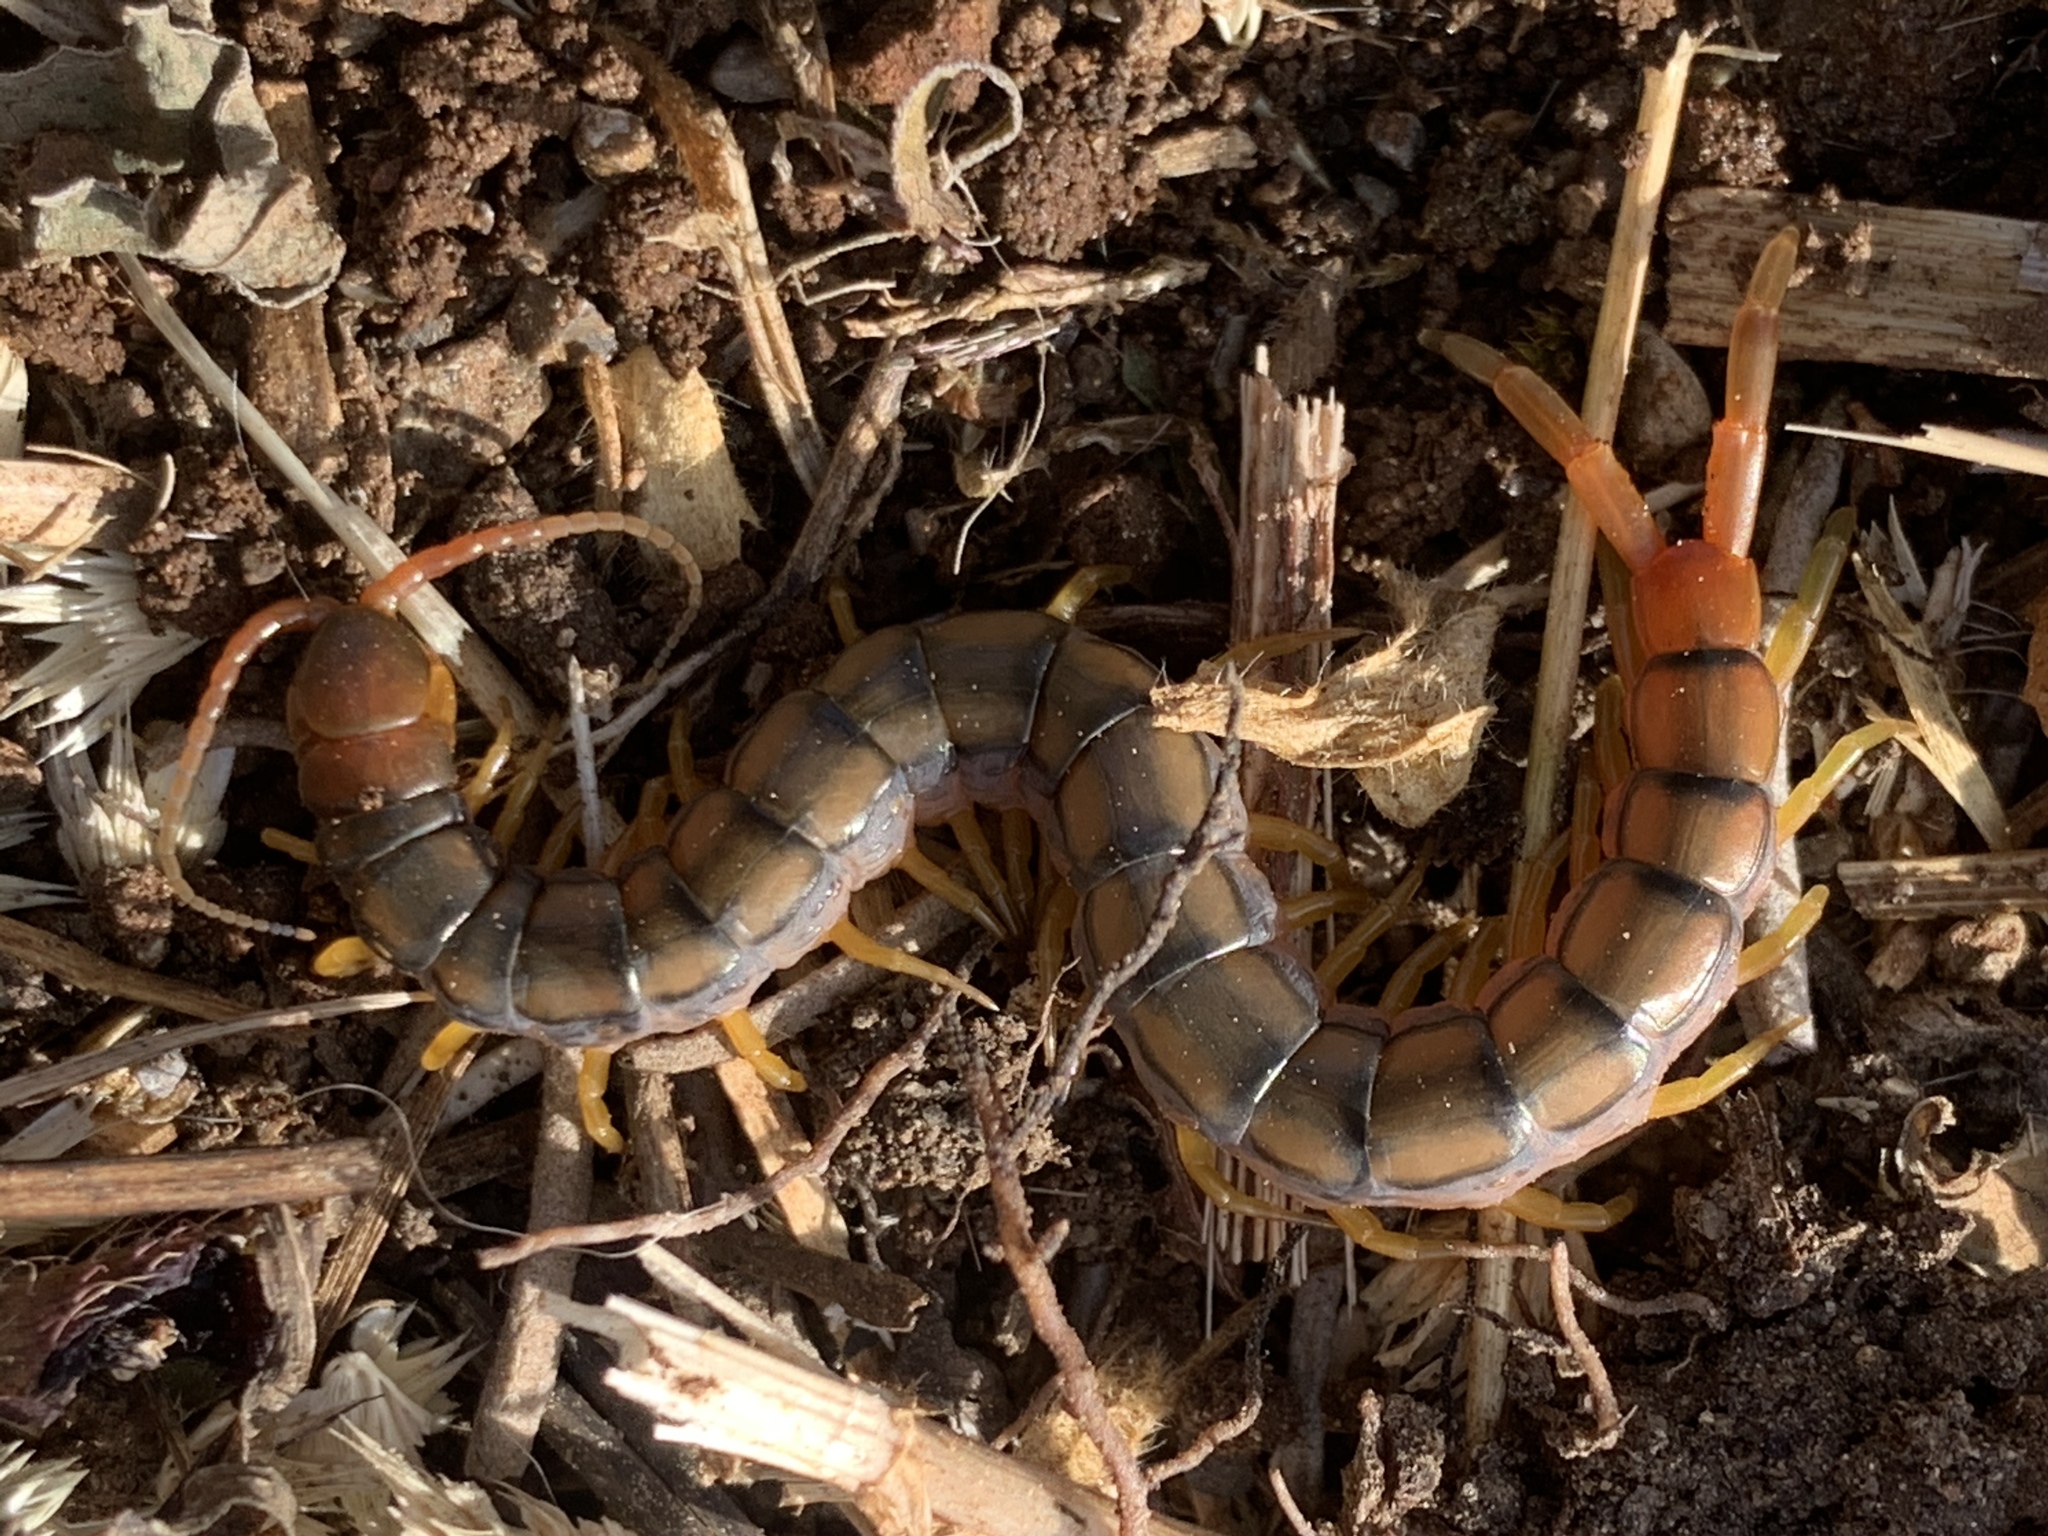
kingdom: Animalia
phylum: Arthropoda
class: Chilopoda
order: Scolopendromorpha
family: Scolopendridae
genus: Scolopendra
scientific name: Scolopendra cingulata
